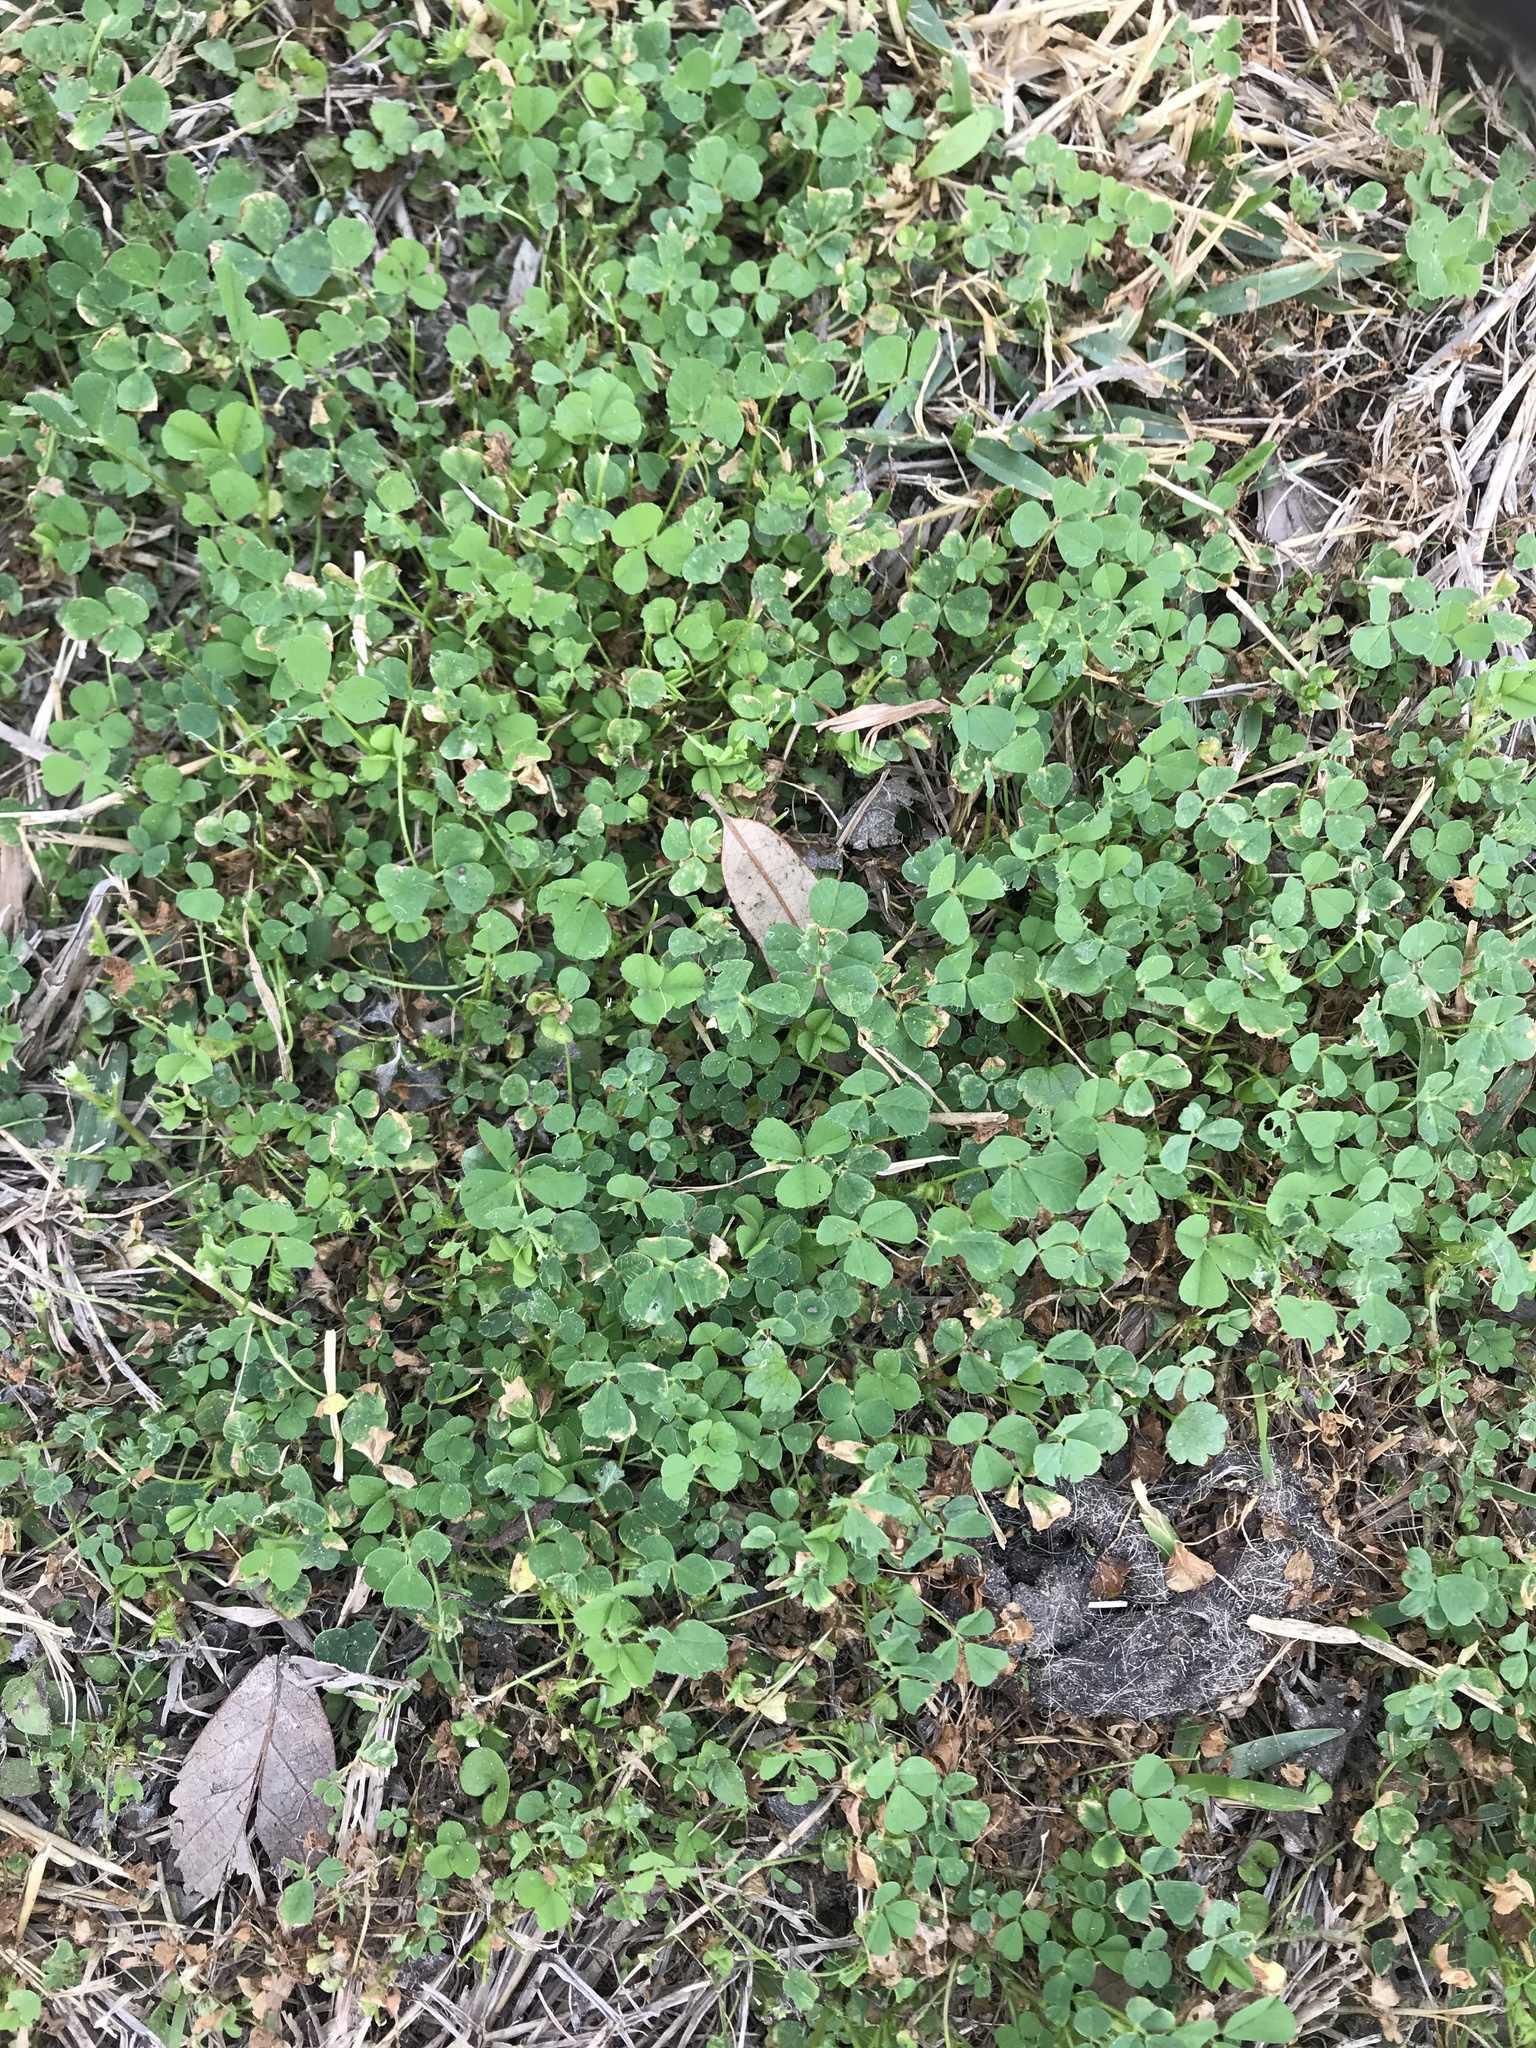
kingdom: Plantae
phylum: Tracheophyta
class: Magnoliopsida
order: Fabales
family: Fabaceae
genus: Medicago
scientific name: Medicago polymorpha
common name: Burclover
